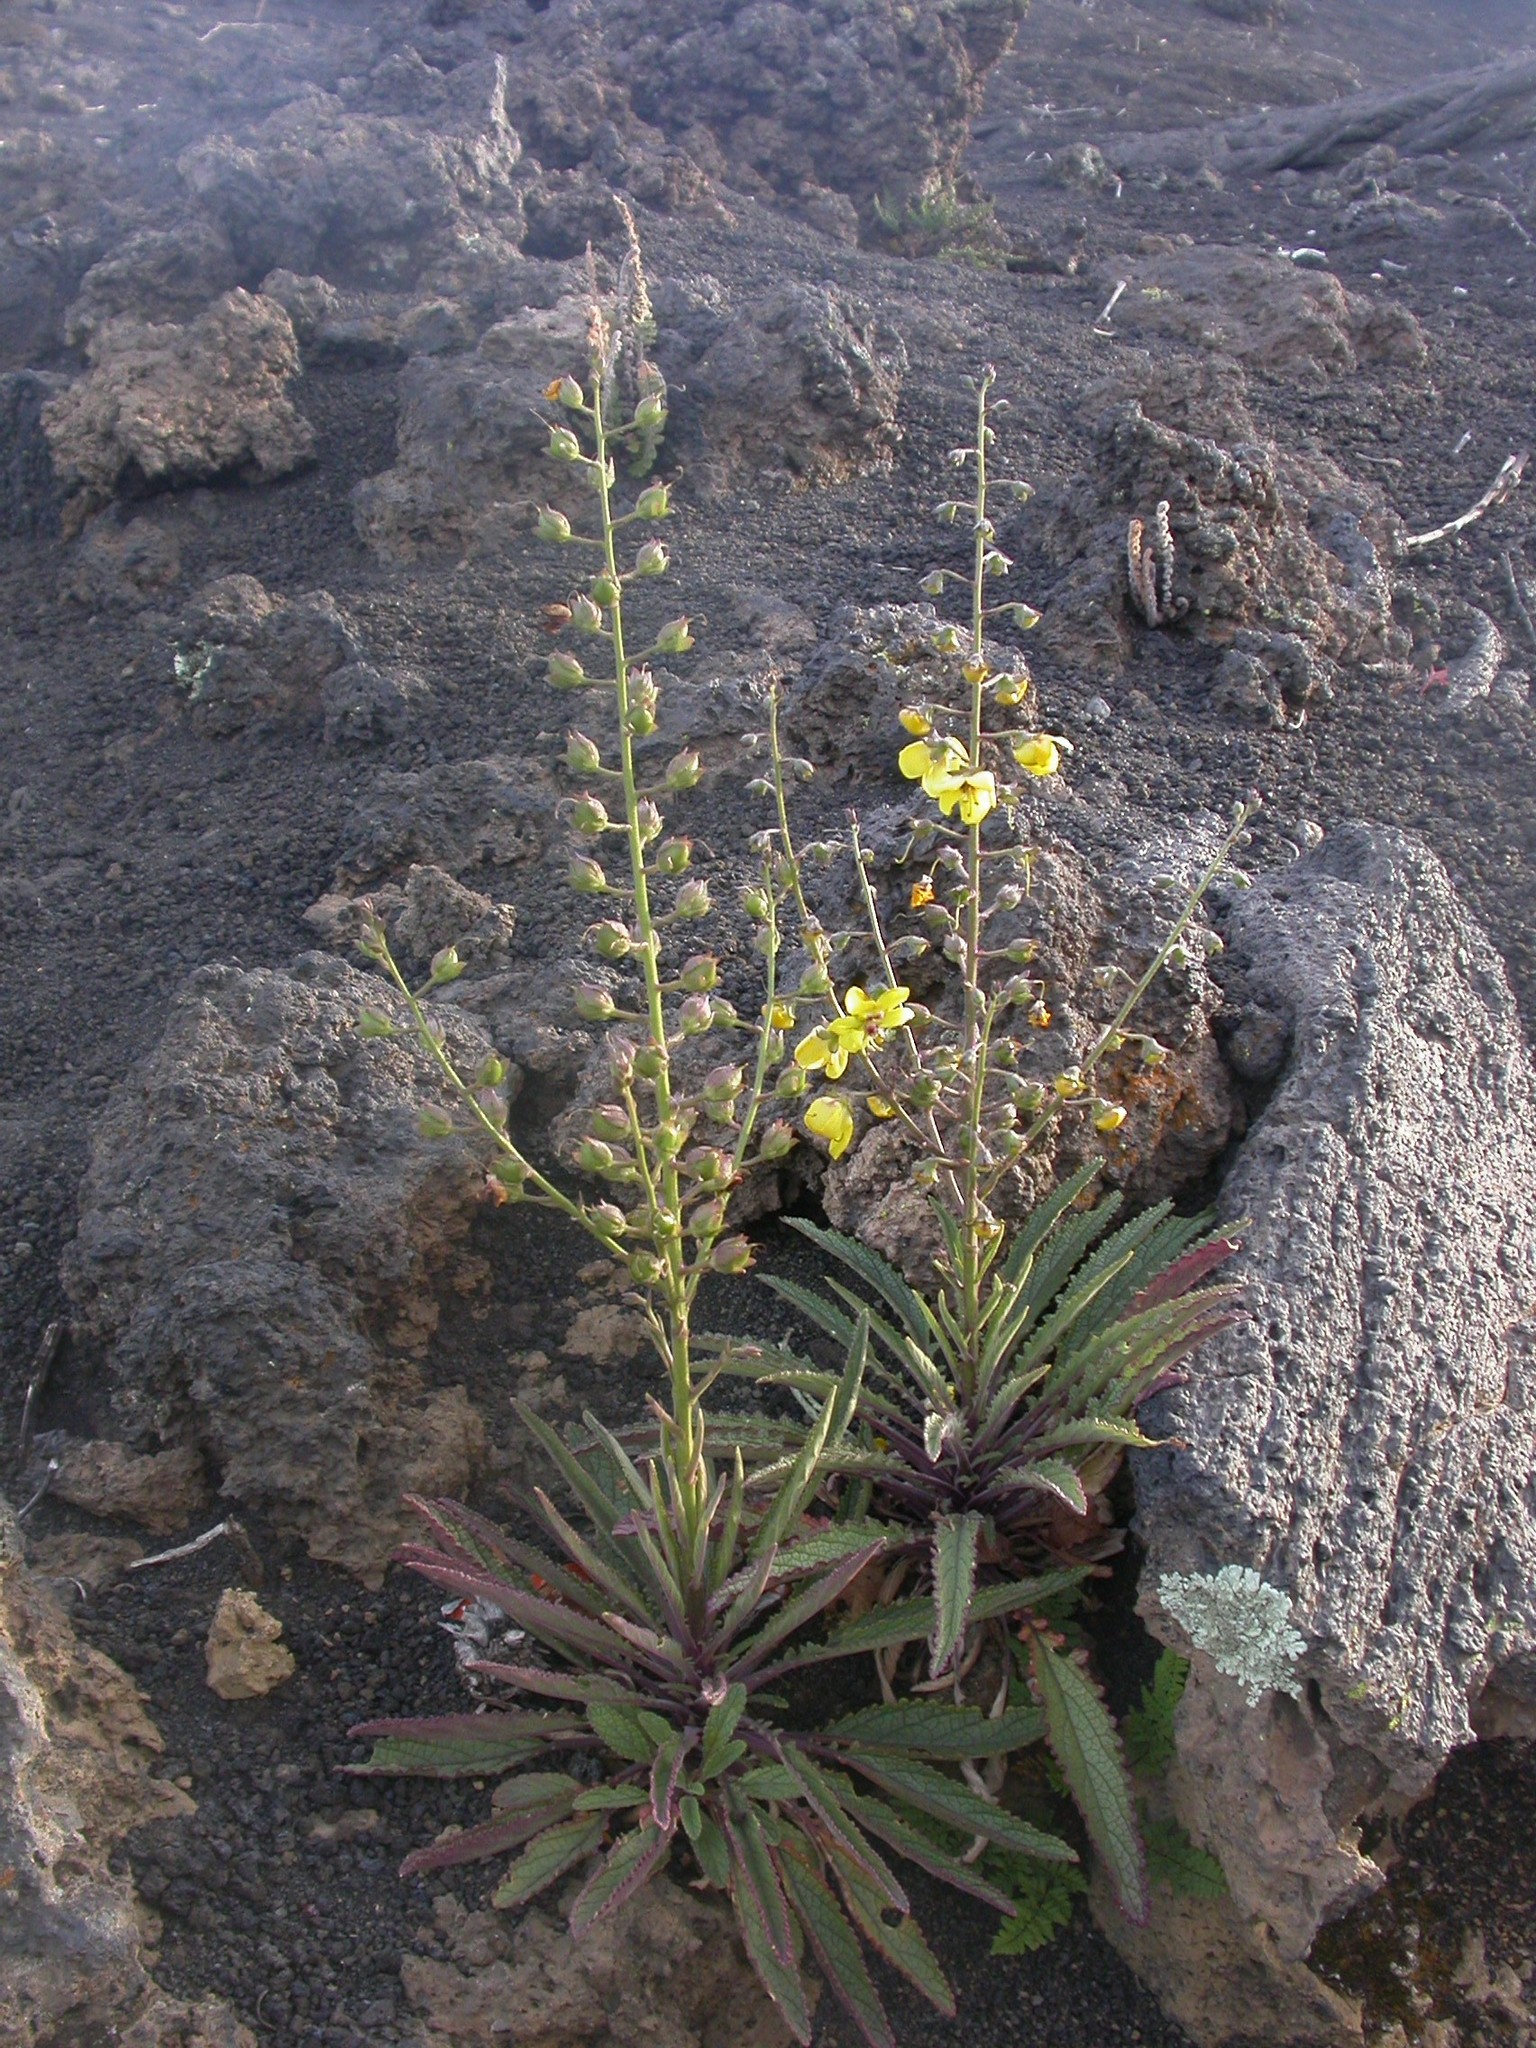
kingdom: Plantae
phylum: Tracheophyta
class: Magnoliopsida
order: Lamiales
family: Scrophulariaceae
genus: Verbascum
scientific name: Verbascum cystolithicum
